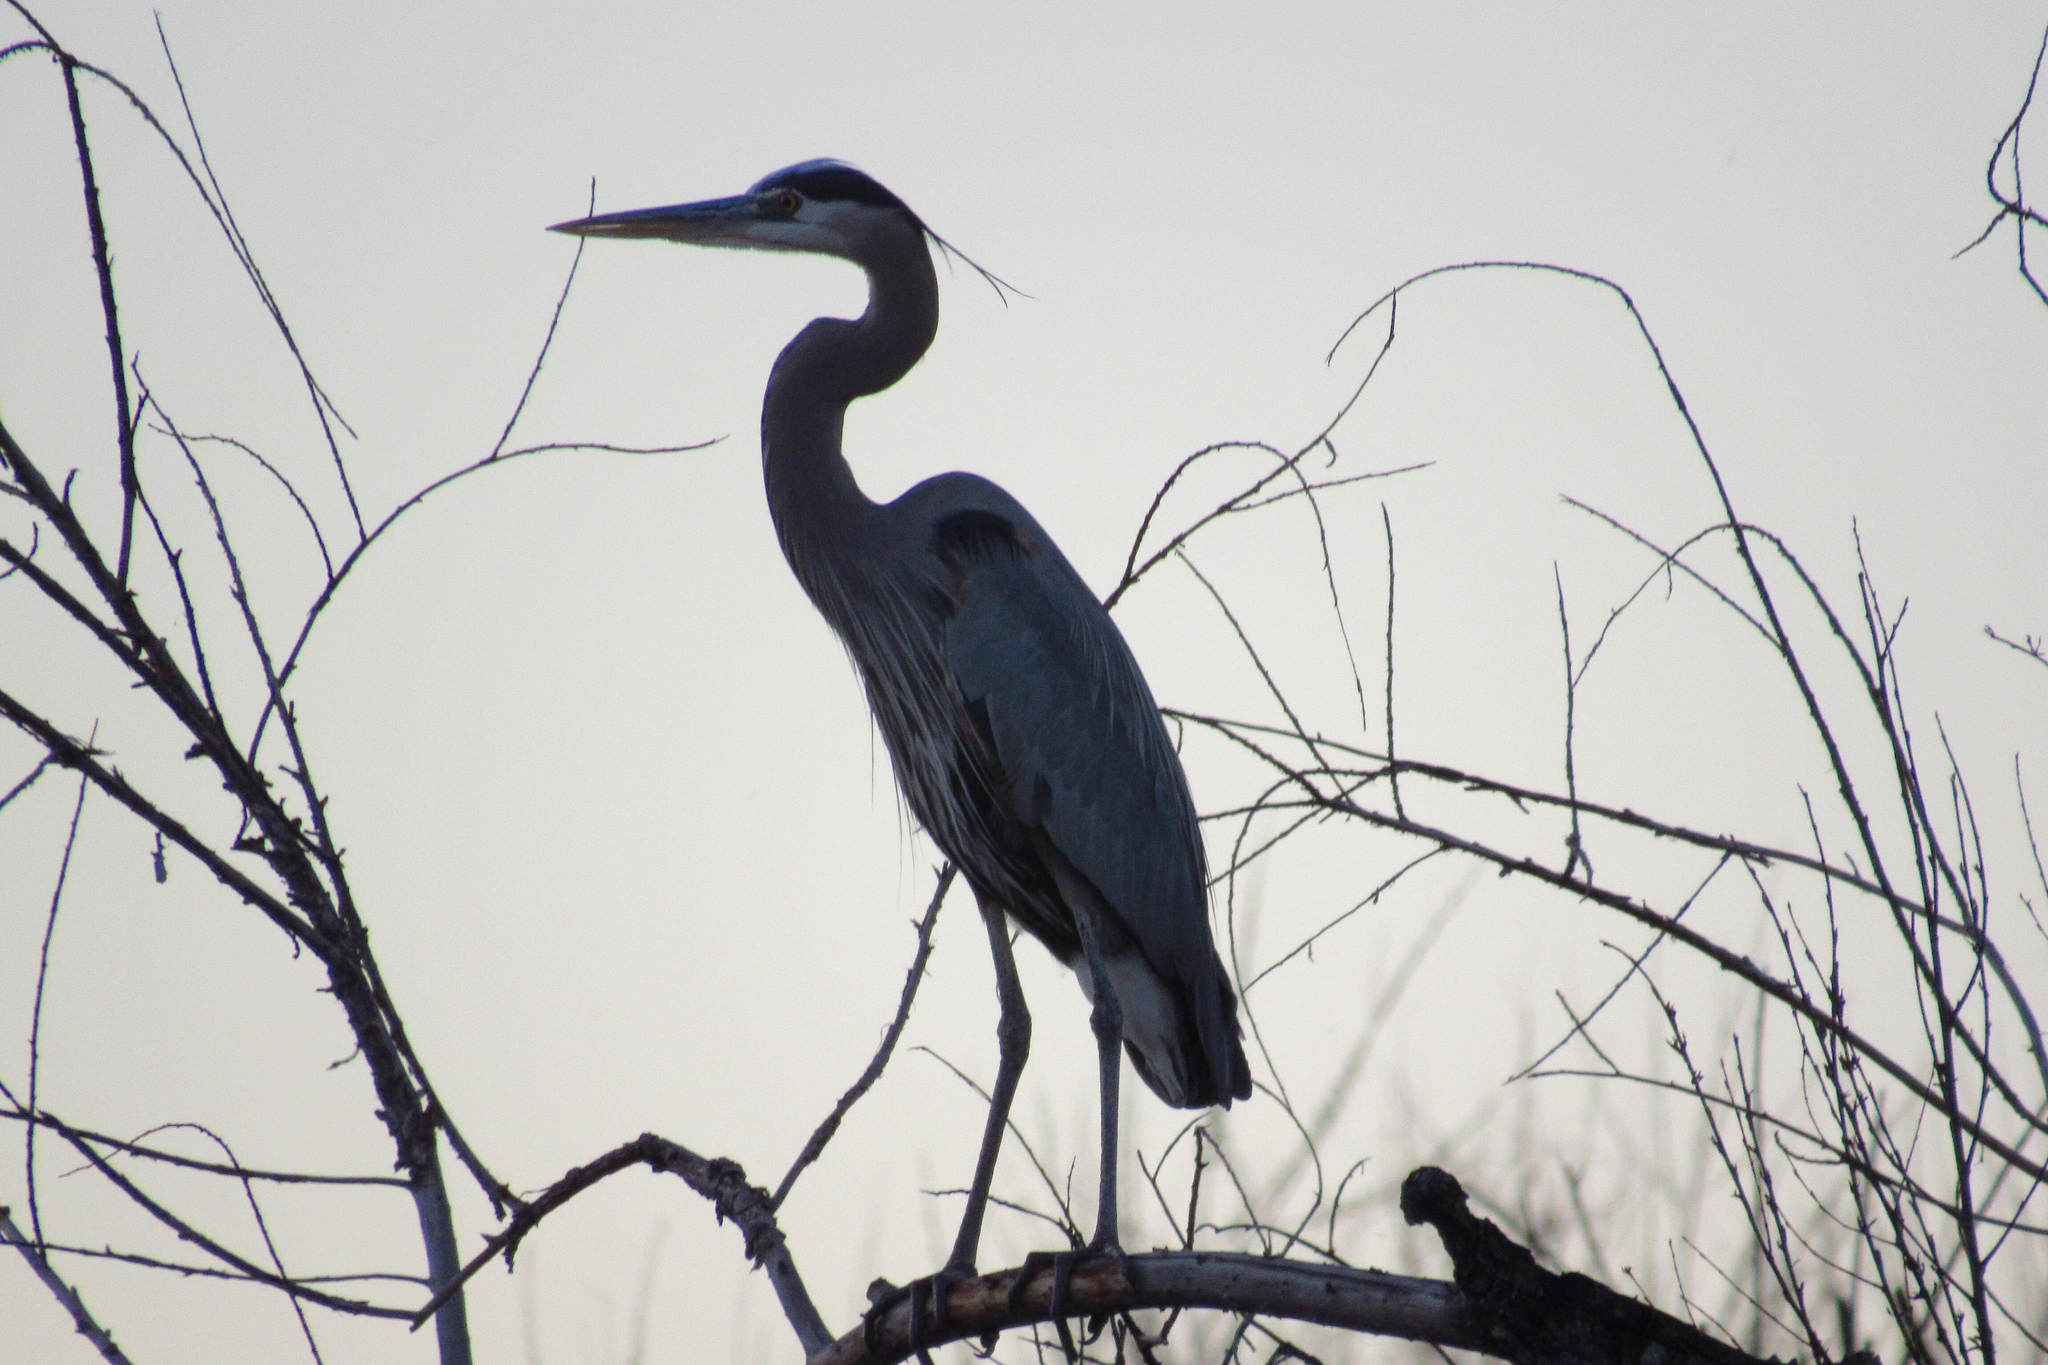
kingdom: Animalia
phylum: Chordata
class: Aves
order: Pelecaniformes
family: Ardeidae
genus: Ardea
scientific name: Ardea herodias
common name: Great blue heron
